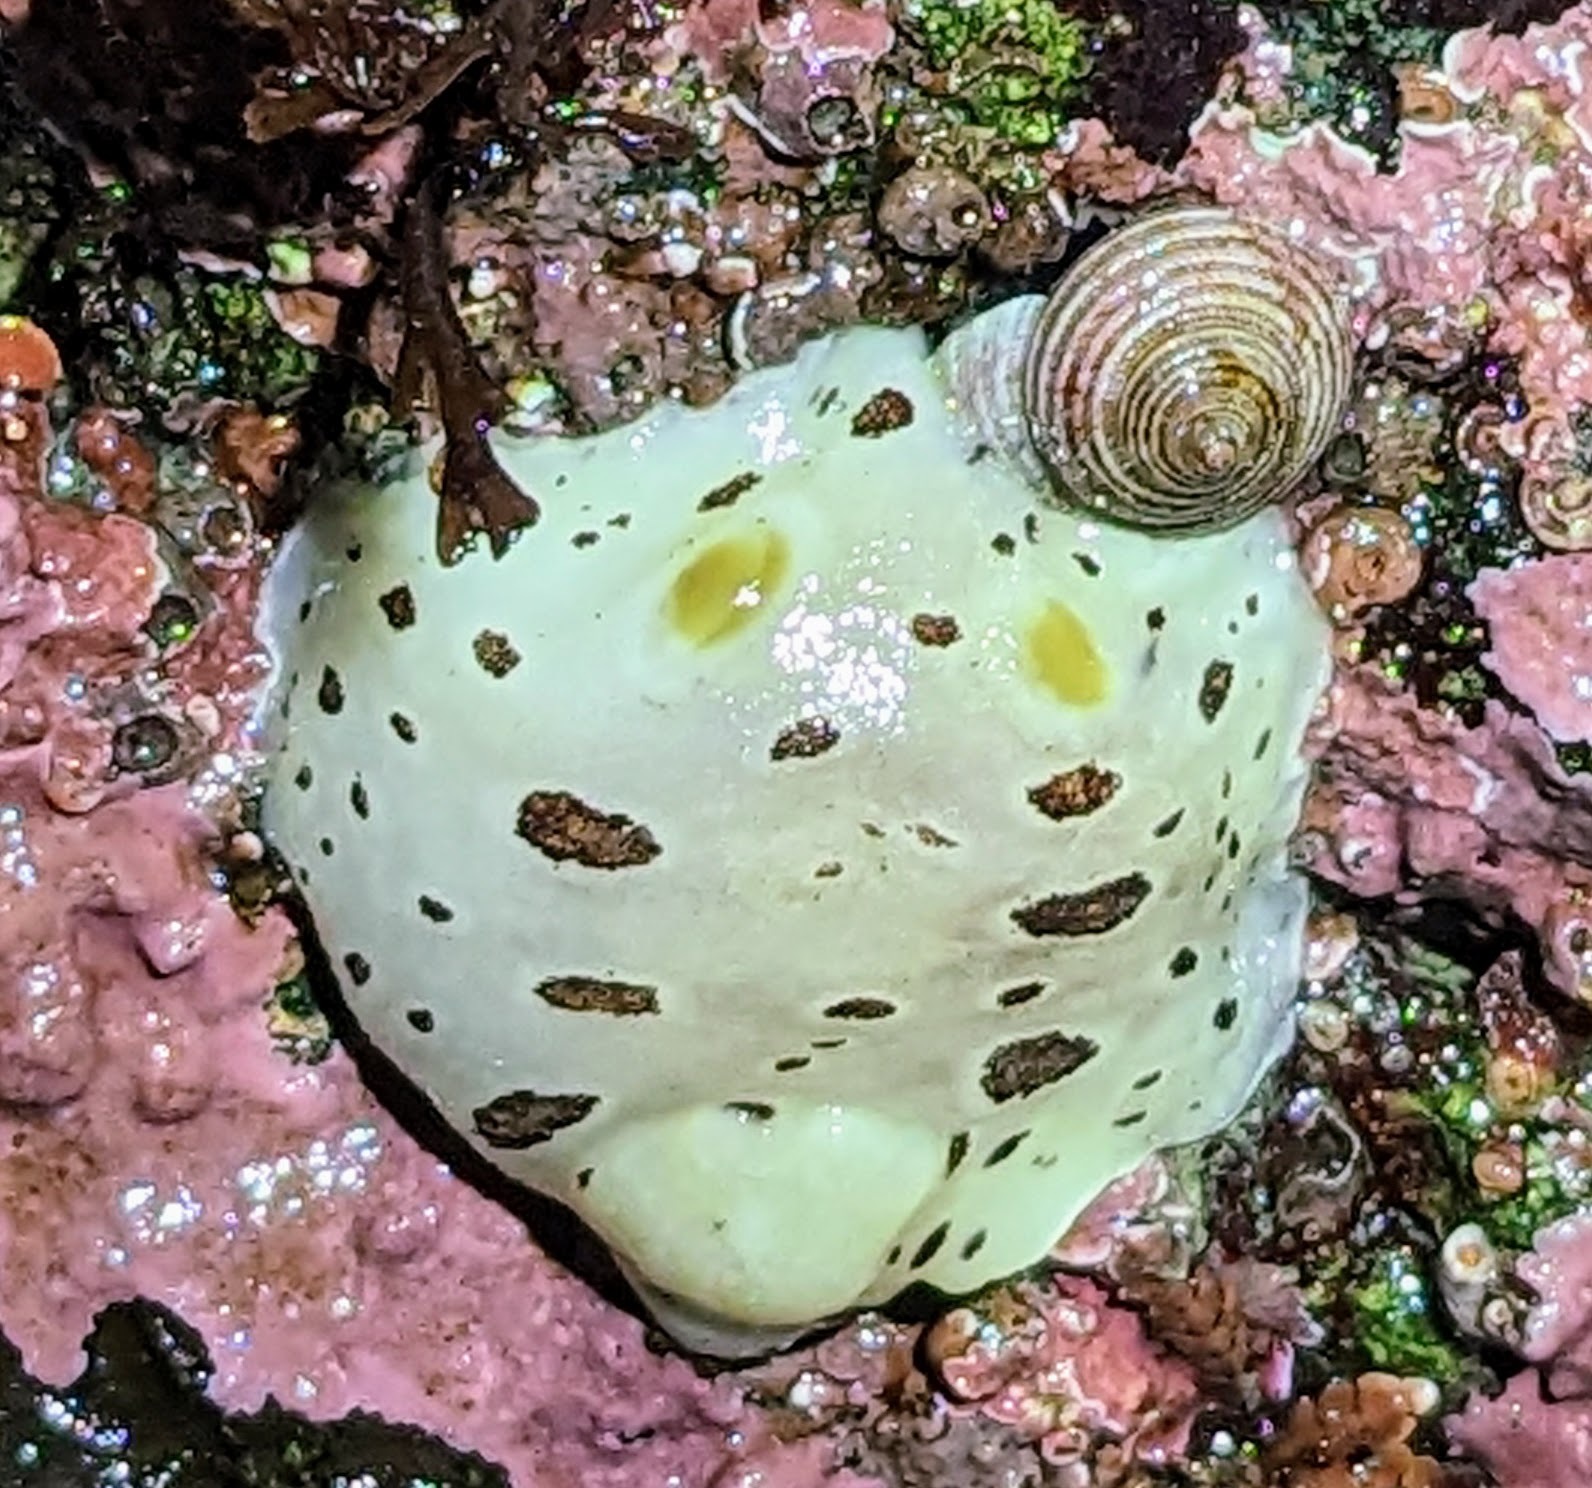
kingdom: Animalia
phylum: Mollusca
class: Gastropoda
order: Nudibranchia
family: Discodorididae
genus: Diaulula
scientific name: Diaulula odonoghuei
